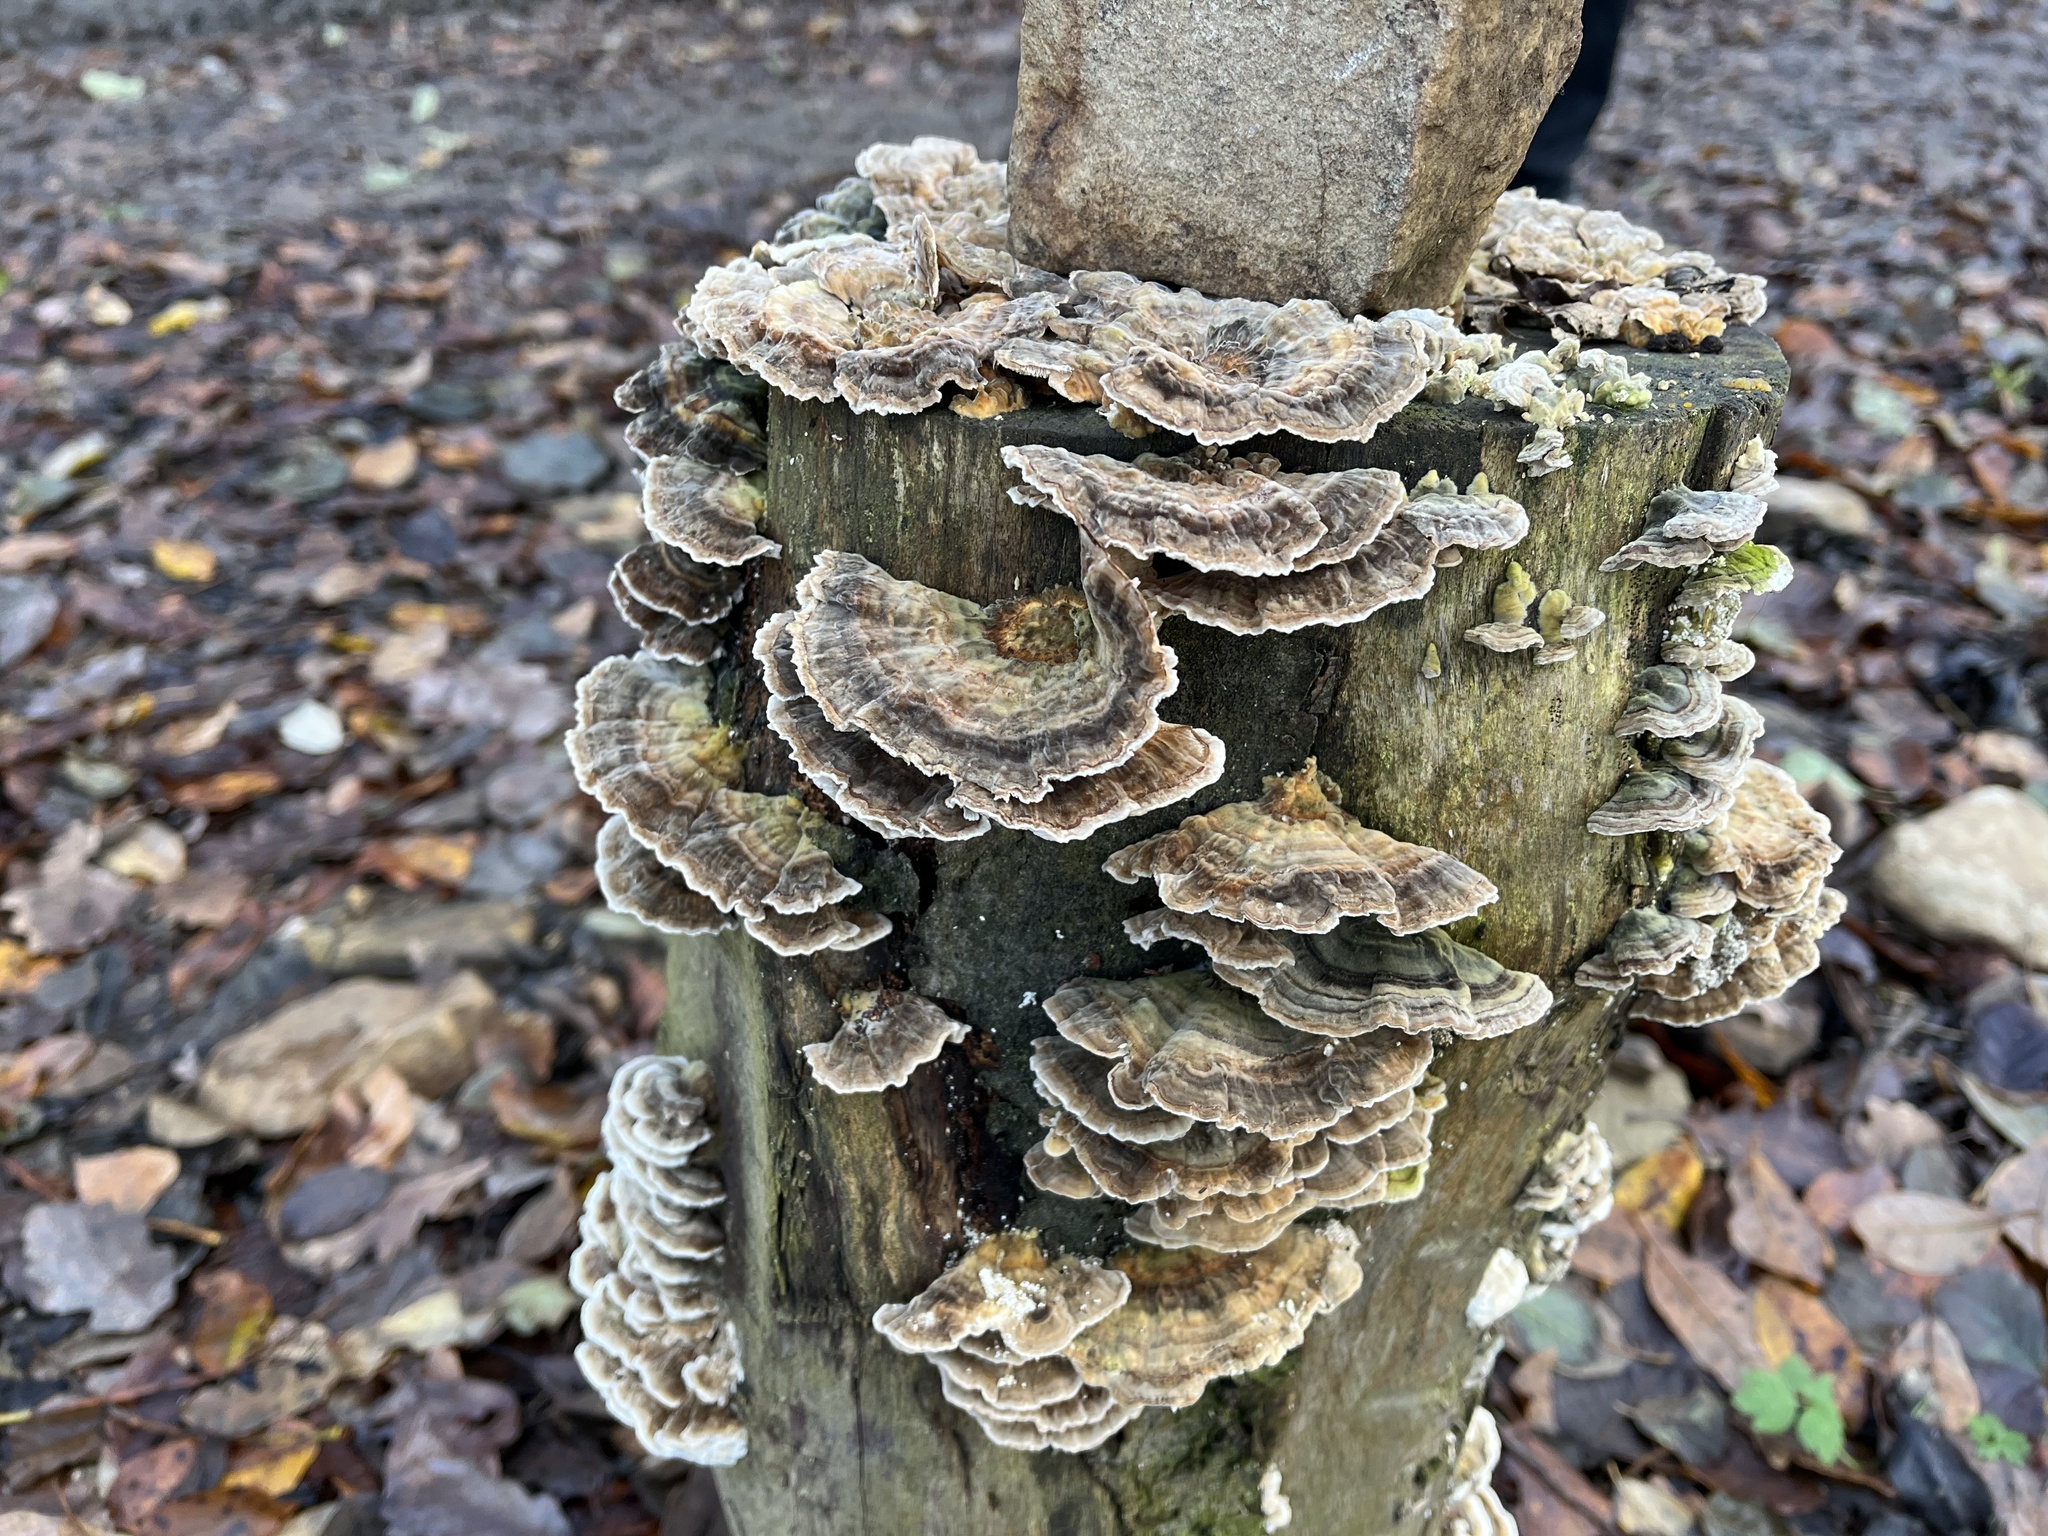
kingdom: Fungi
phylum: Basidiomycota
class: Agaricomycetes
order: Polyporales
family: Polyporaceae
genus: Trametes
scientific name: Trametes versicolor
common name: Turkeytail
